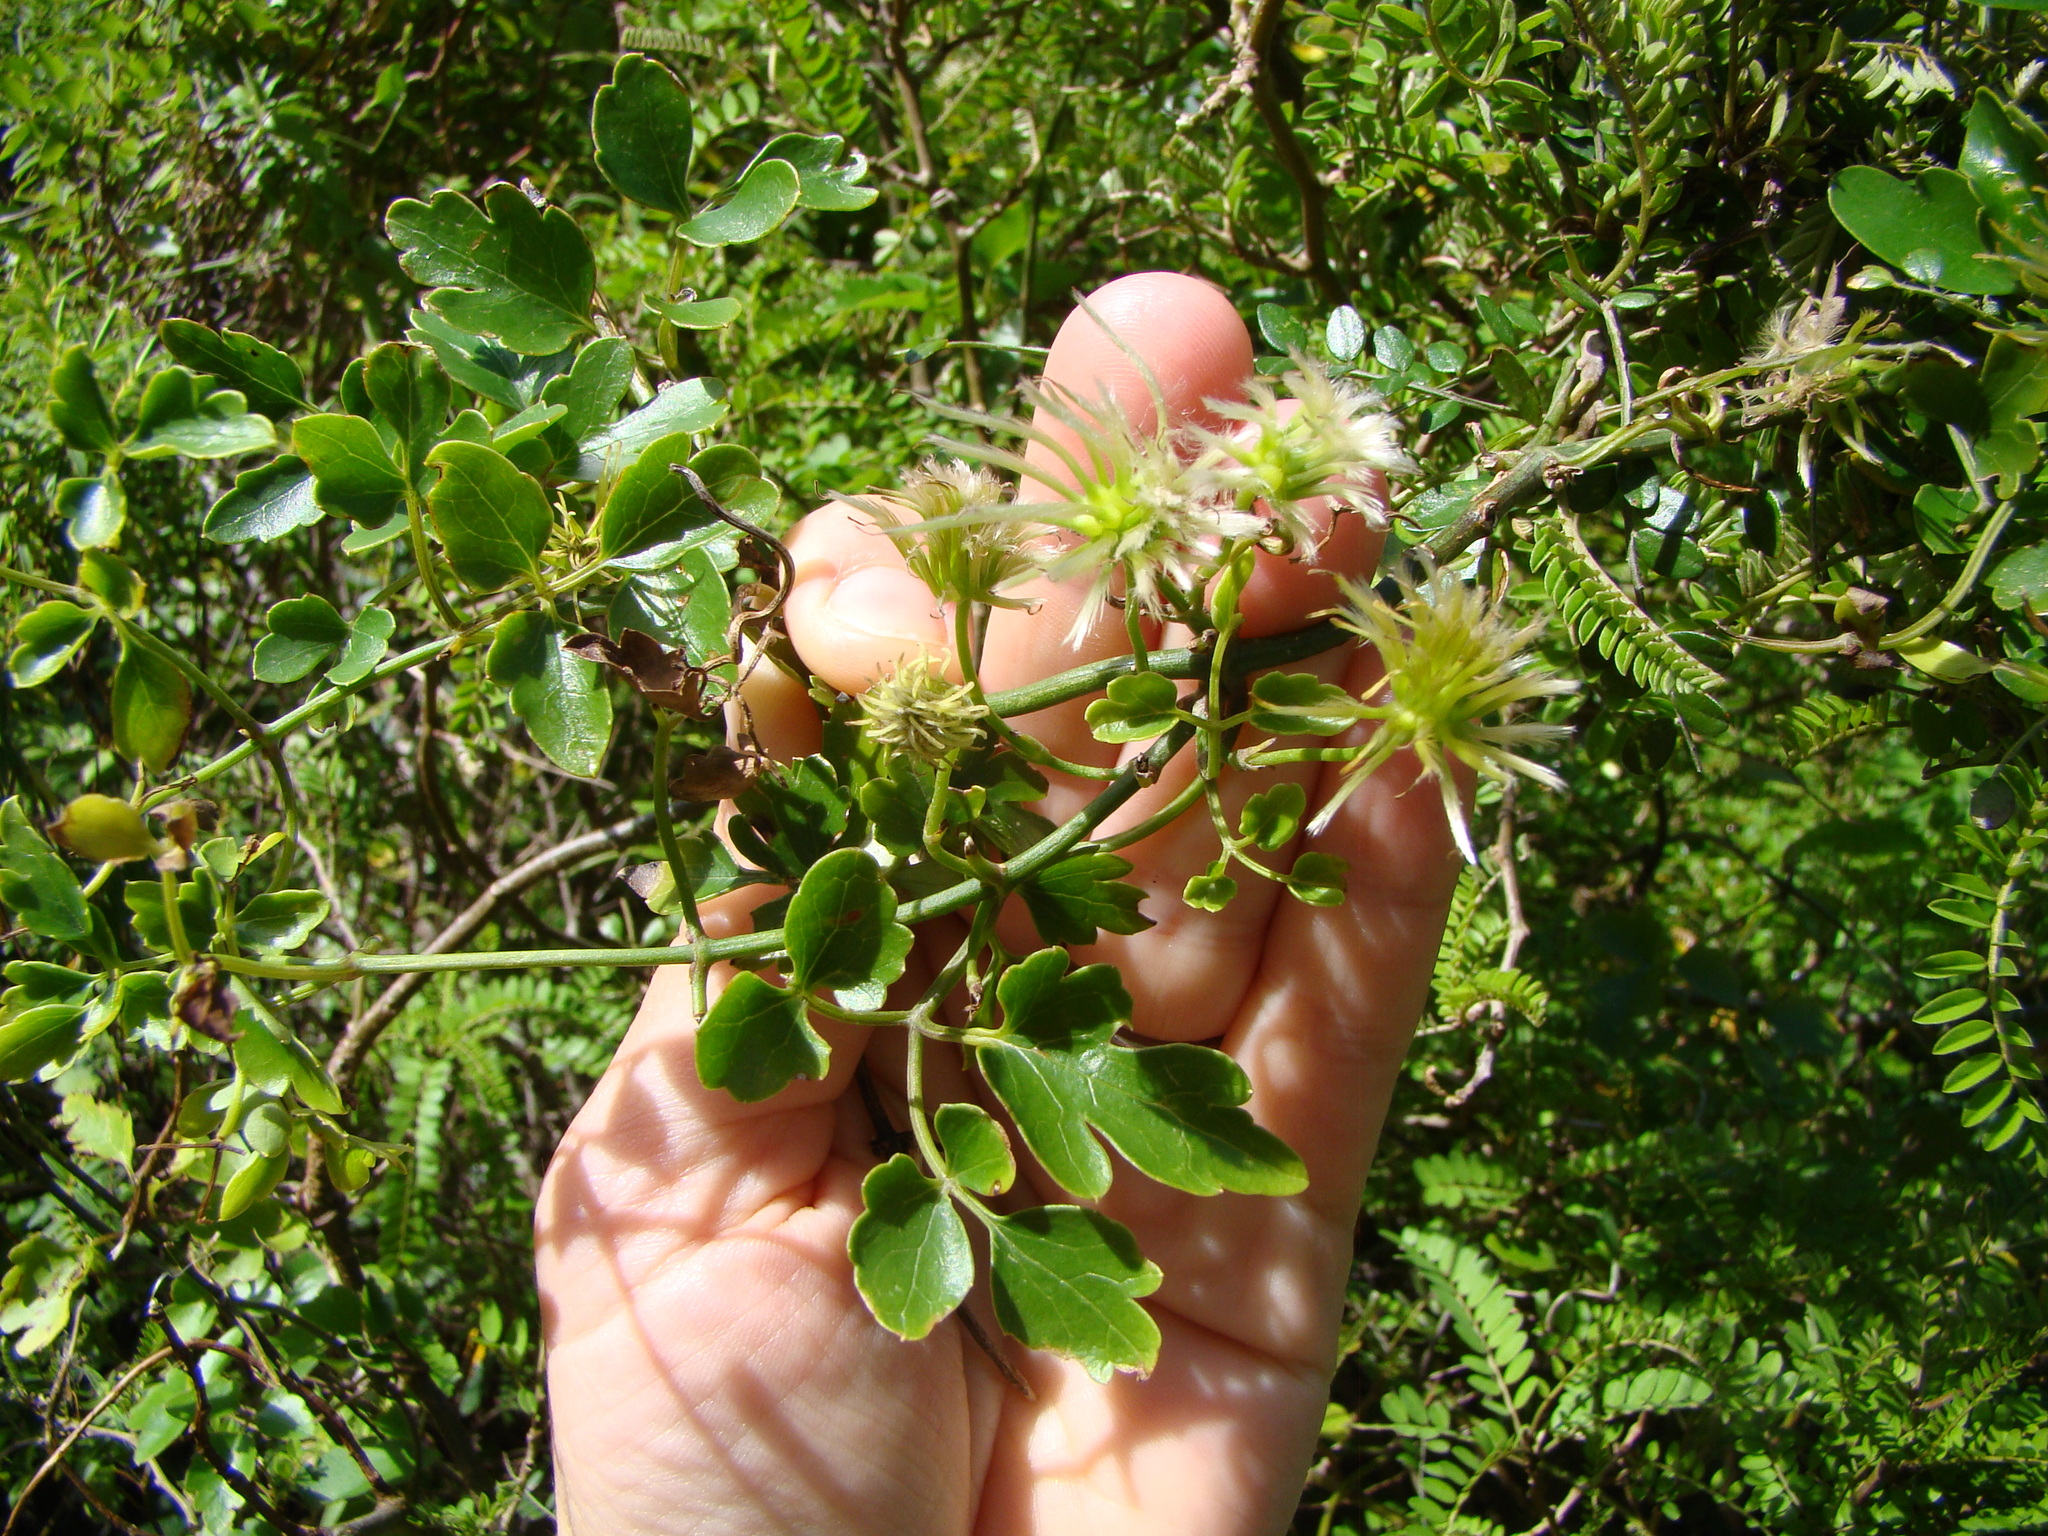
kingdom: Plantae
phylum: Tracheophyta
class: Magnoliopsida
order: Ranunculales
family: Ranunculaceae
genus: Clematis
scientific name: Clematis forsteri
